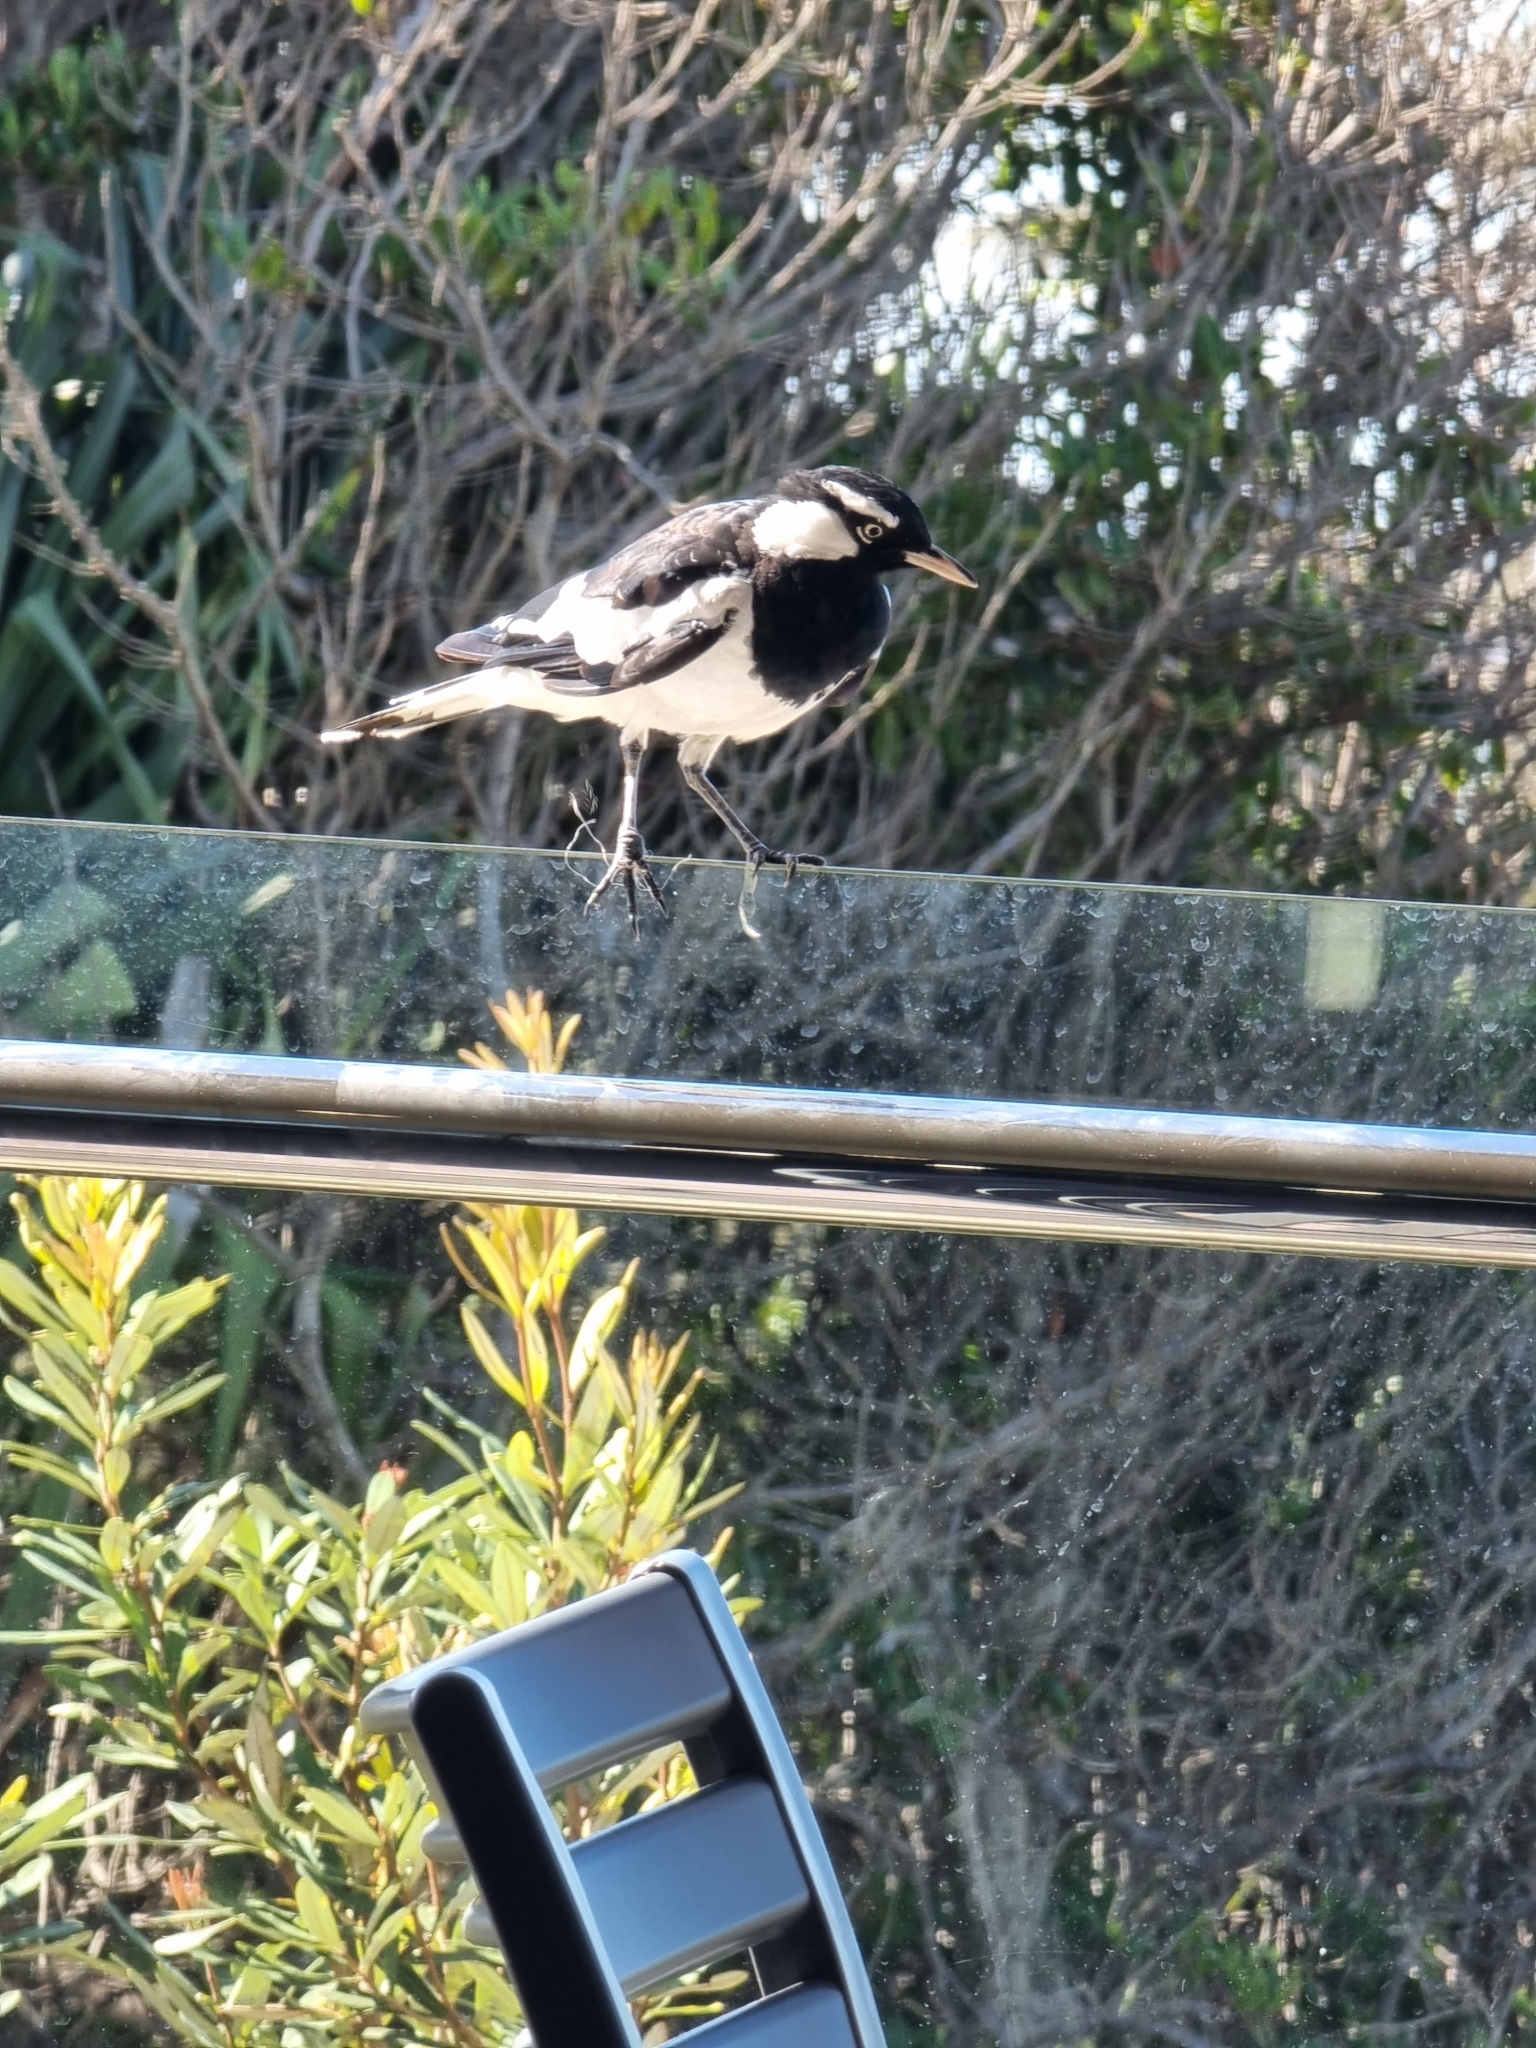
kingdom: Animalia
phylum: Chordata
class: Aves
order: Passeriformes
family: Monarchidae
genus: Grallina
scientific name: Grallina cyanoleuca
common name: Magpie-lark
